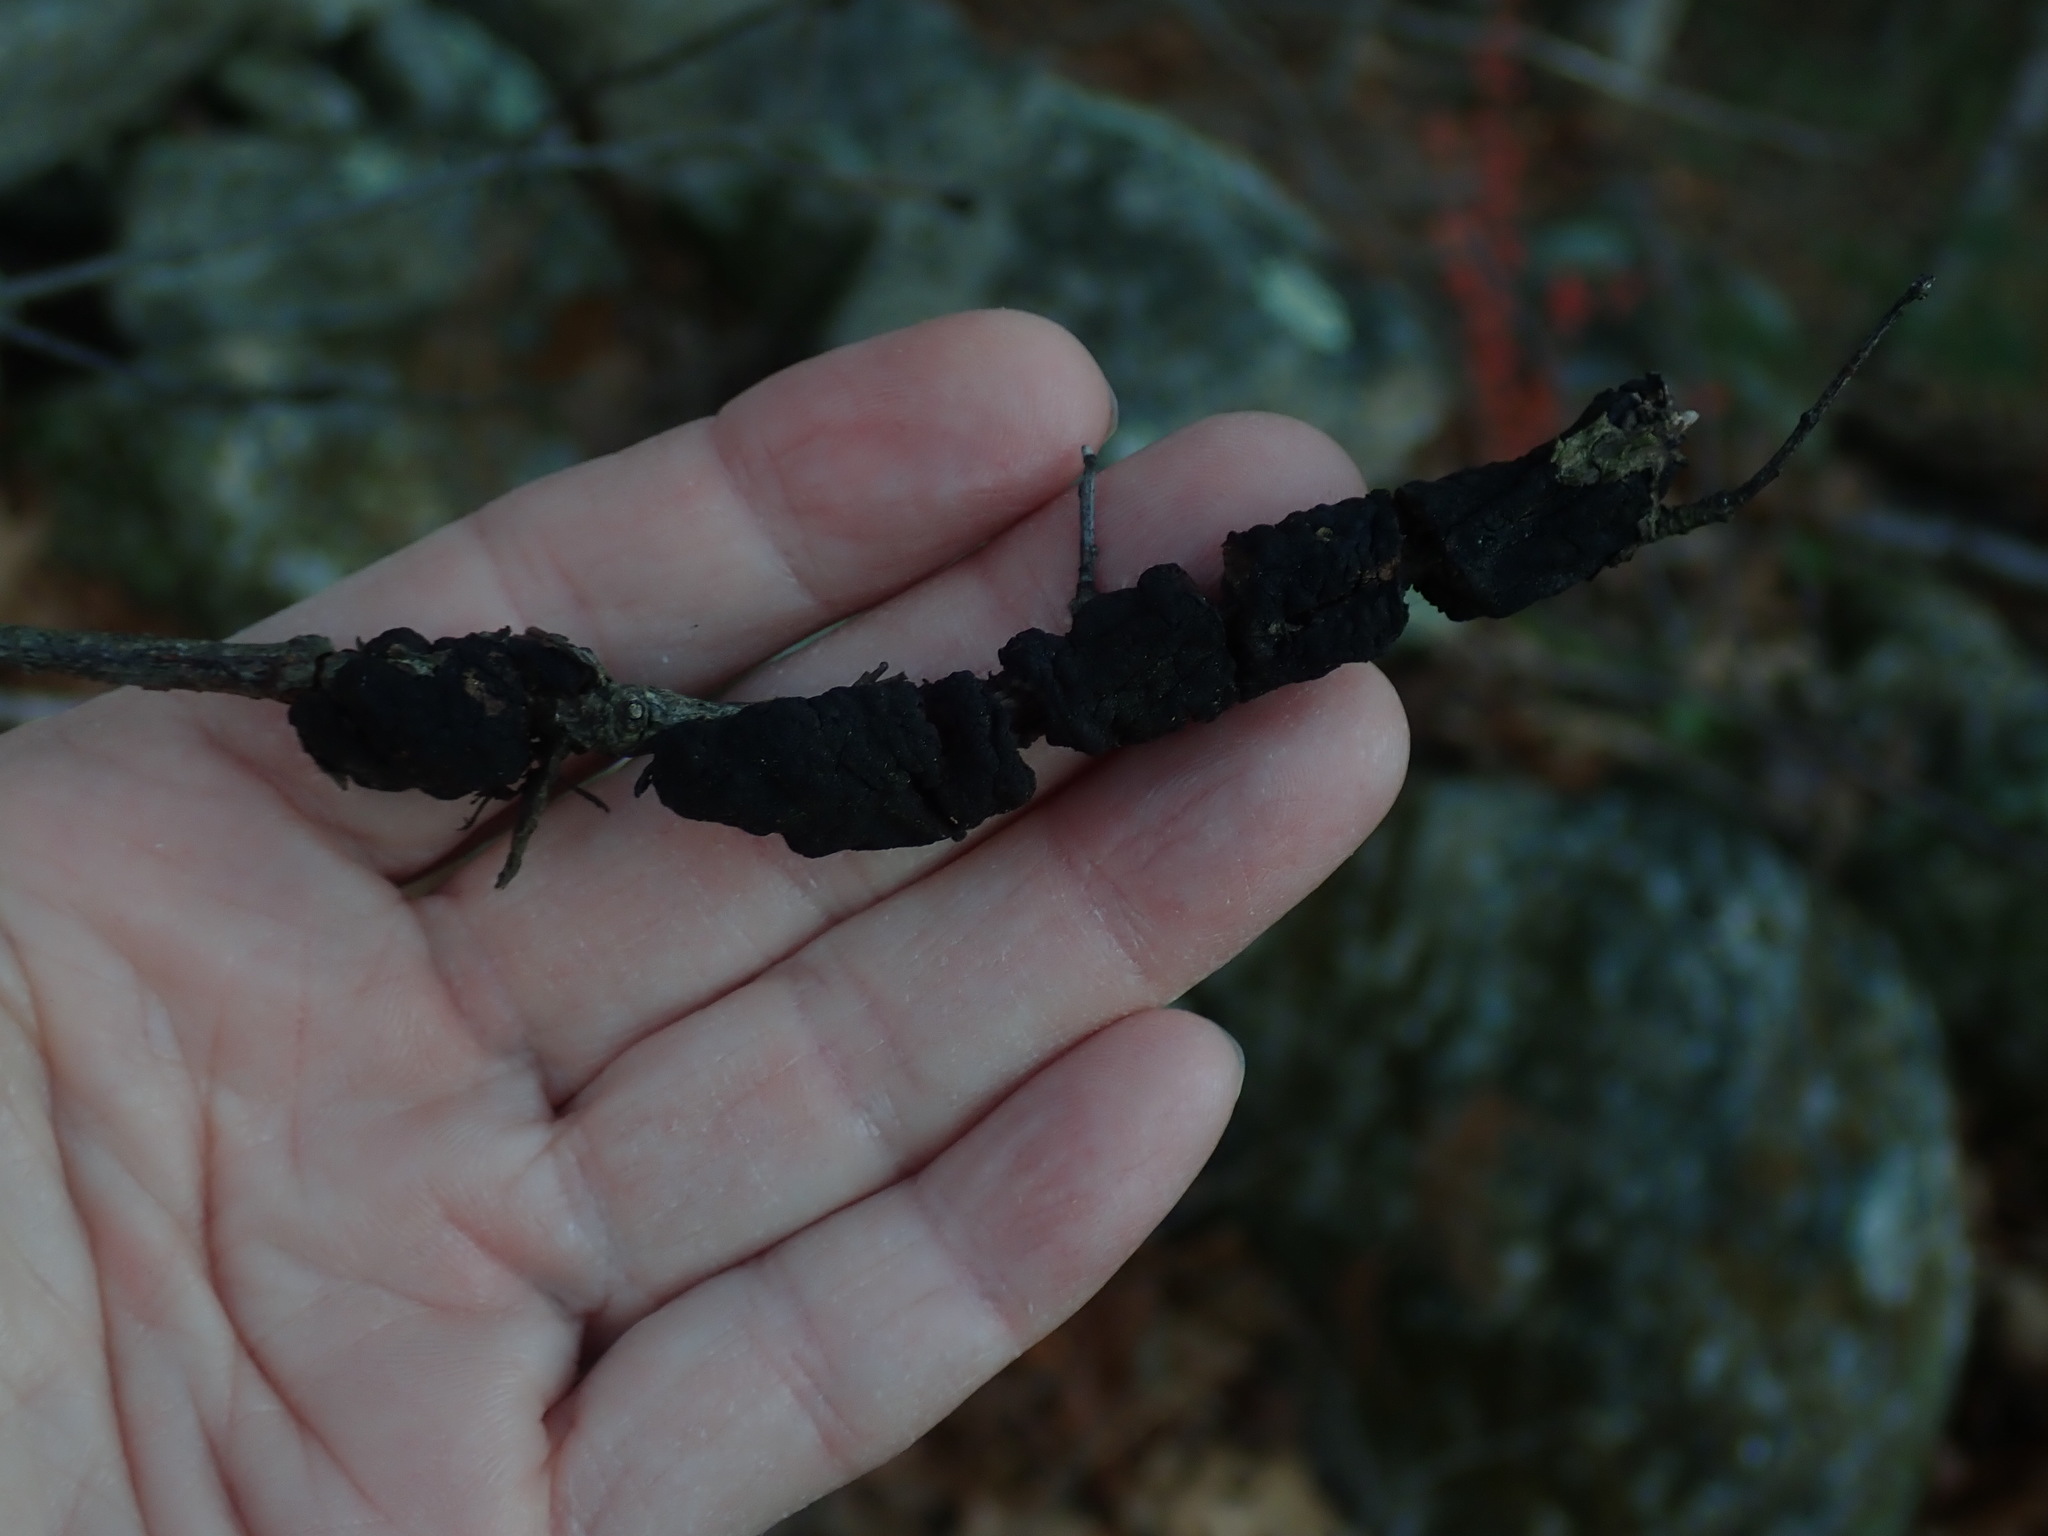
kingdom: Fungi
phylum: Ascomycota
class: Dothideomycetes
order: Venturiales
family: Venturiaceae
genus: Apiosporina
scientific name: Apiosporina morbosa
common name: Black knot
